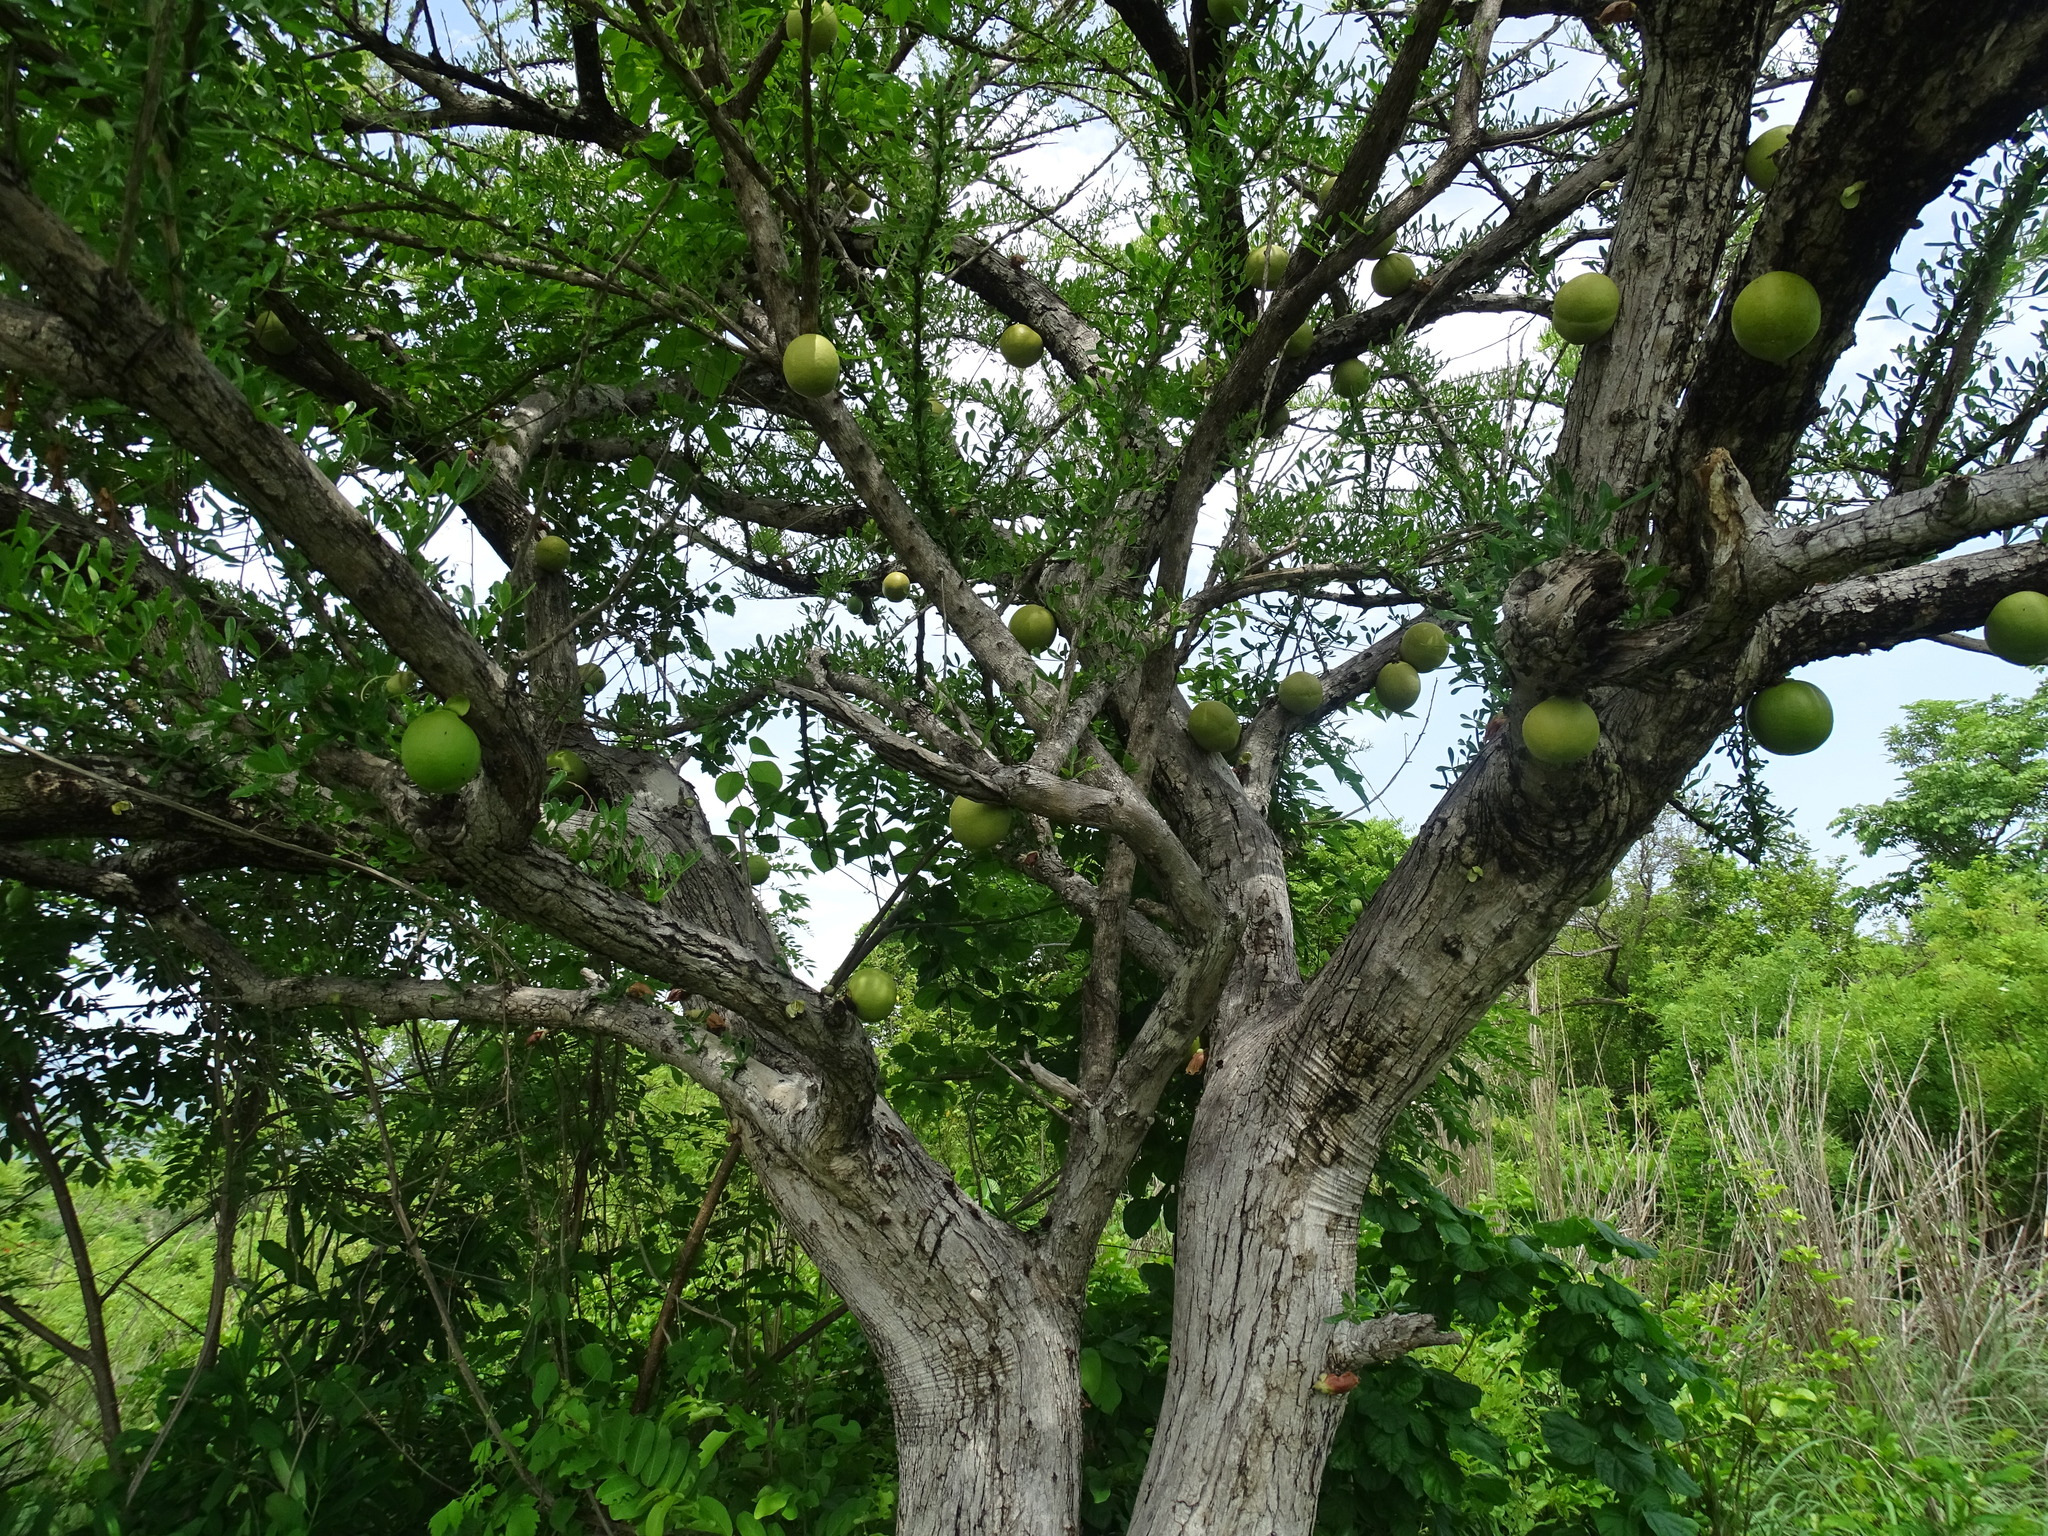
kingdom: Plantae
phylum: Tracheophyta
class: Magnoliopsida
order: Lamiales
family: Bignoniaceae
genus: Crescentia
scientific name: Crescentia alata
